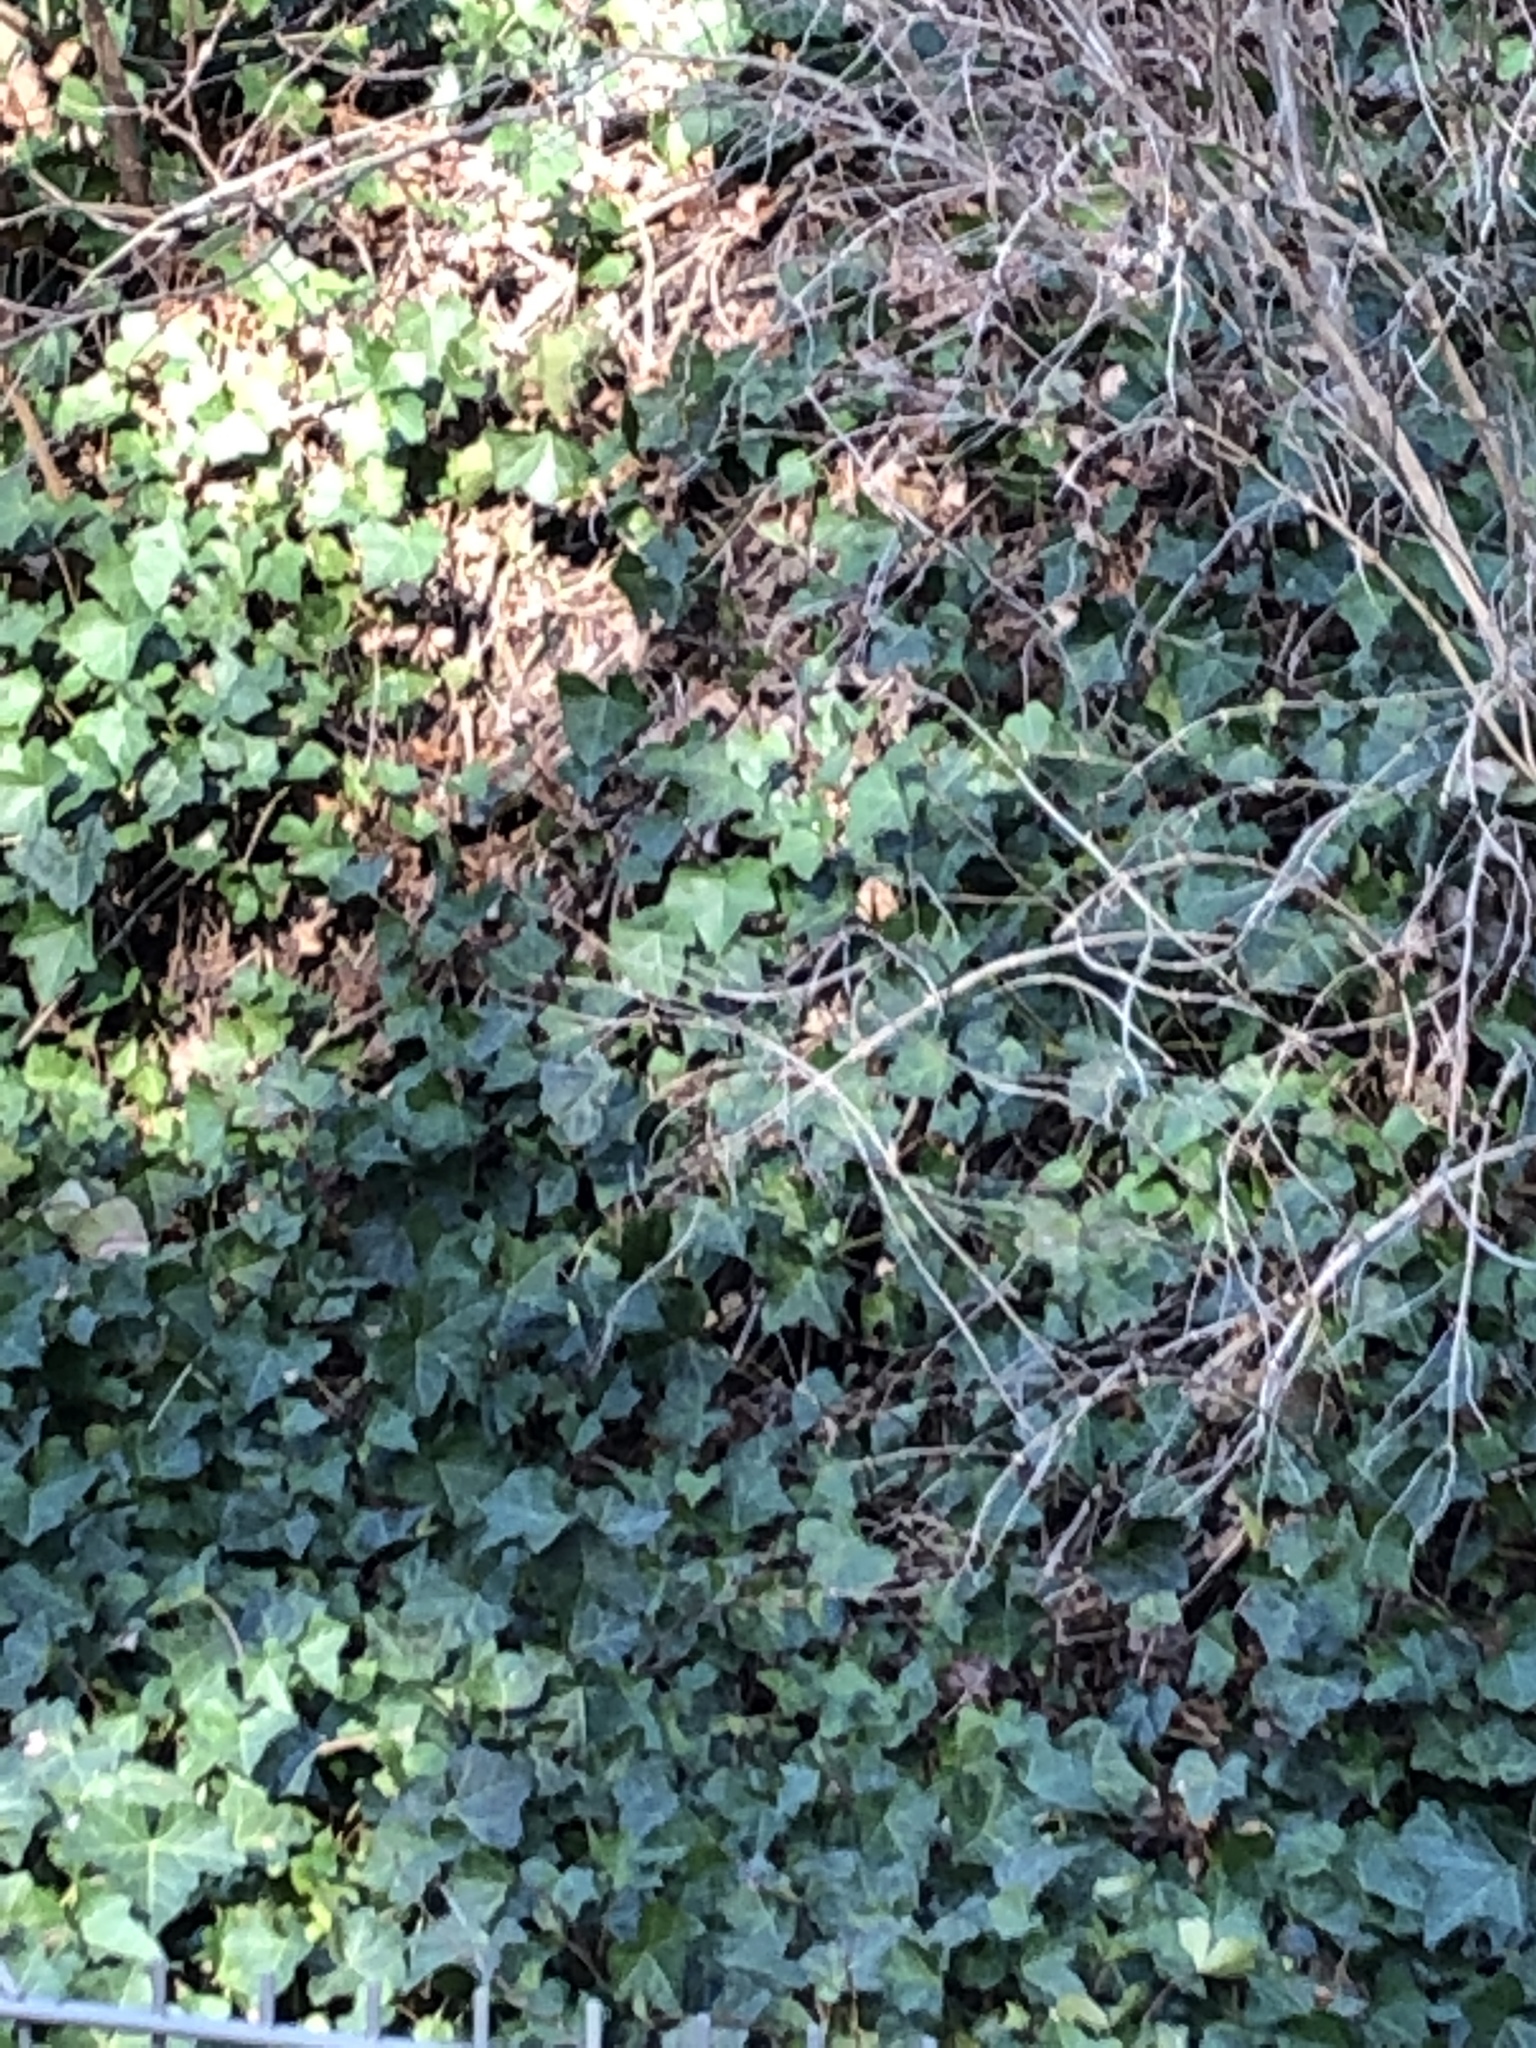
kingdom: Plantae
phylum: Tracheophyta
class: Magnoliopsida
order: Apiales
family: Araliaceae
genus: Hedera
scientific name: Hedera helix
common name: Ivy
